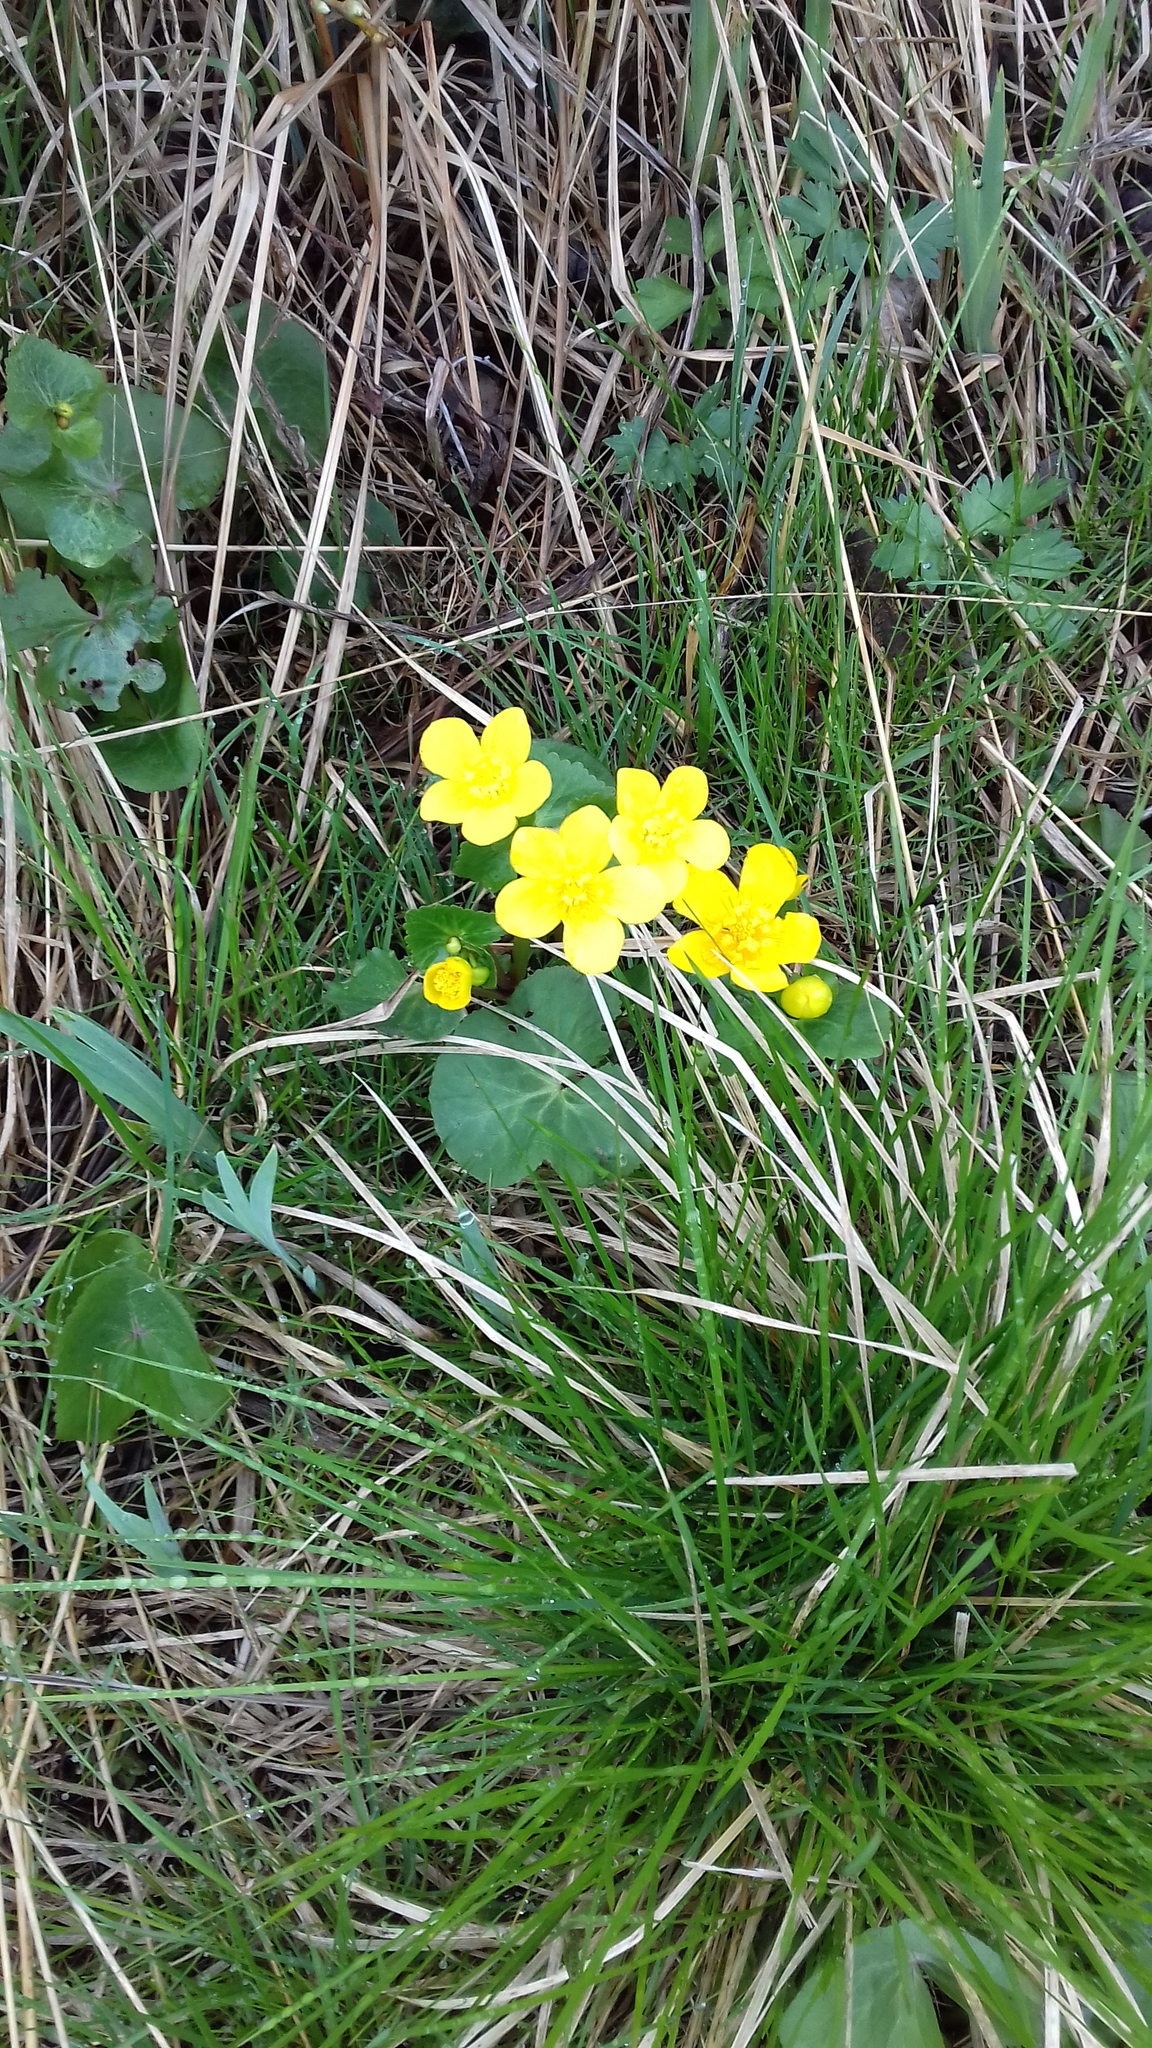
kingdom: Plantae
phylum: Tracheophyta
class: Magnoliopsida
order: Ranunculales
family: Ranunculaceae
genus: Caltha
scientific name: Caltha palustris
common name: Marsh marigold
